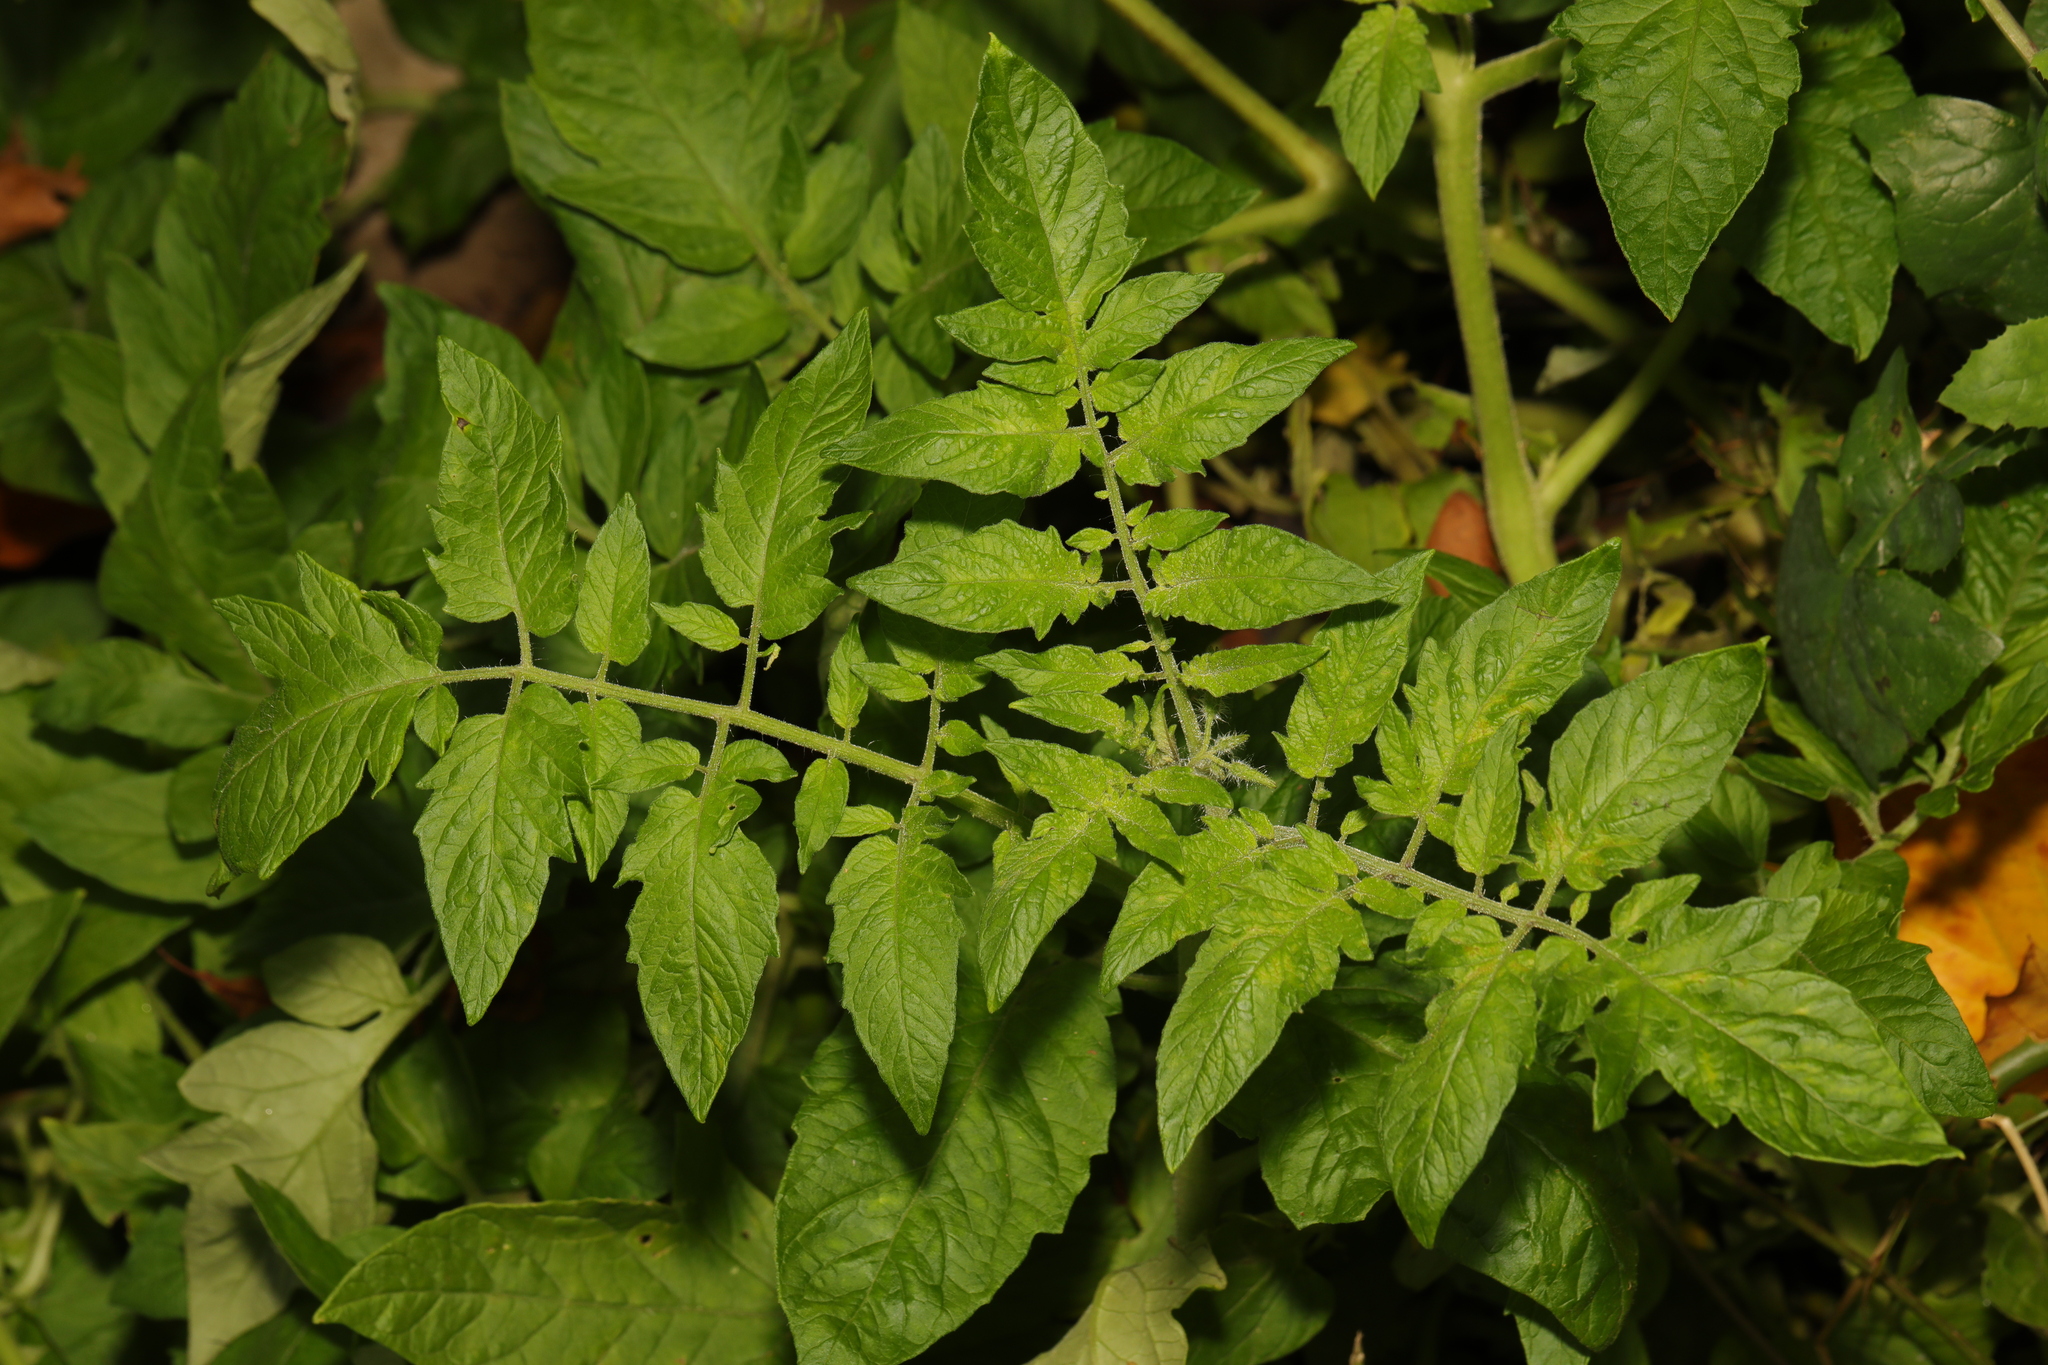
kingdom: Plantae
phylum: Tracheophyta
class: Magnoliopsida
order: Solanales
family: Solanaceae
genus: Solanum
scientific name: Solanum lycopersicum
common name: Garden tomato
